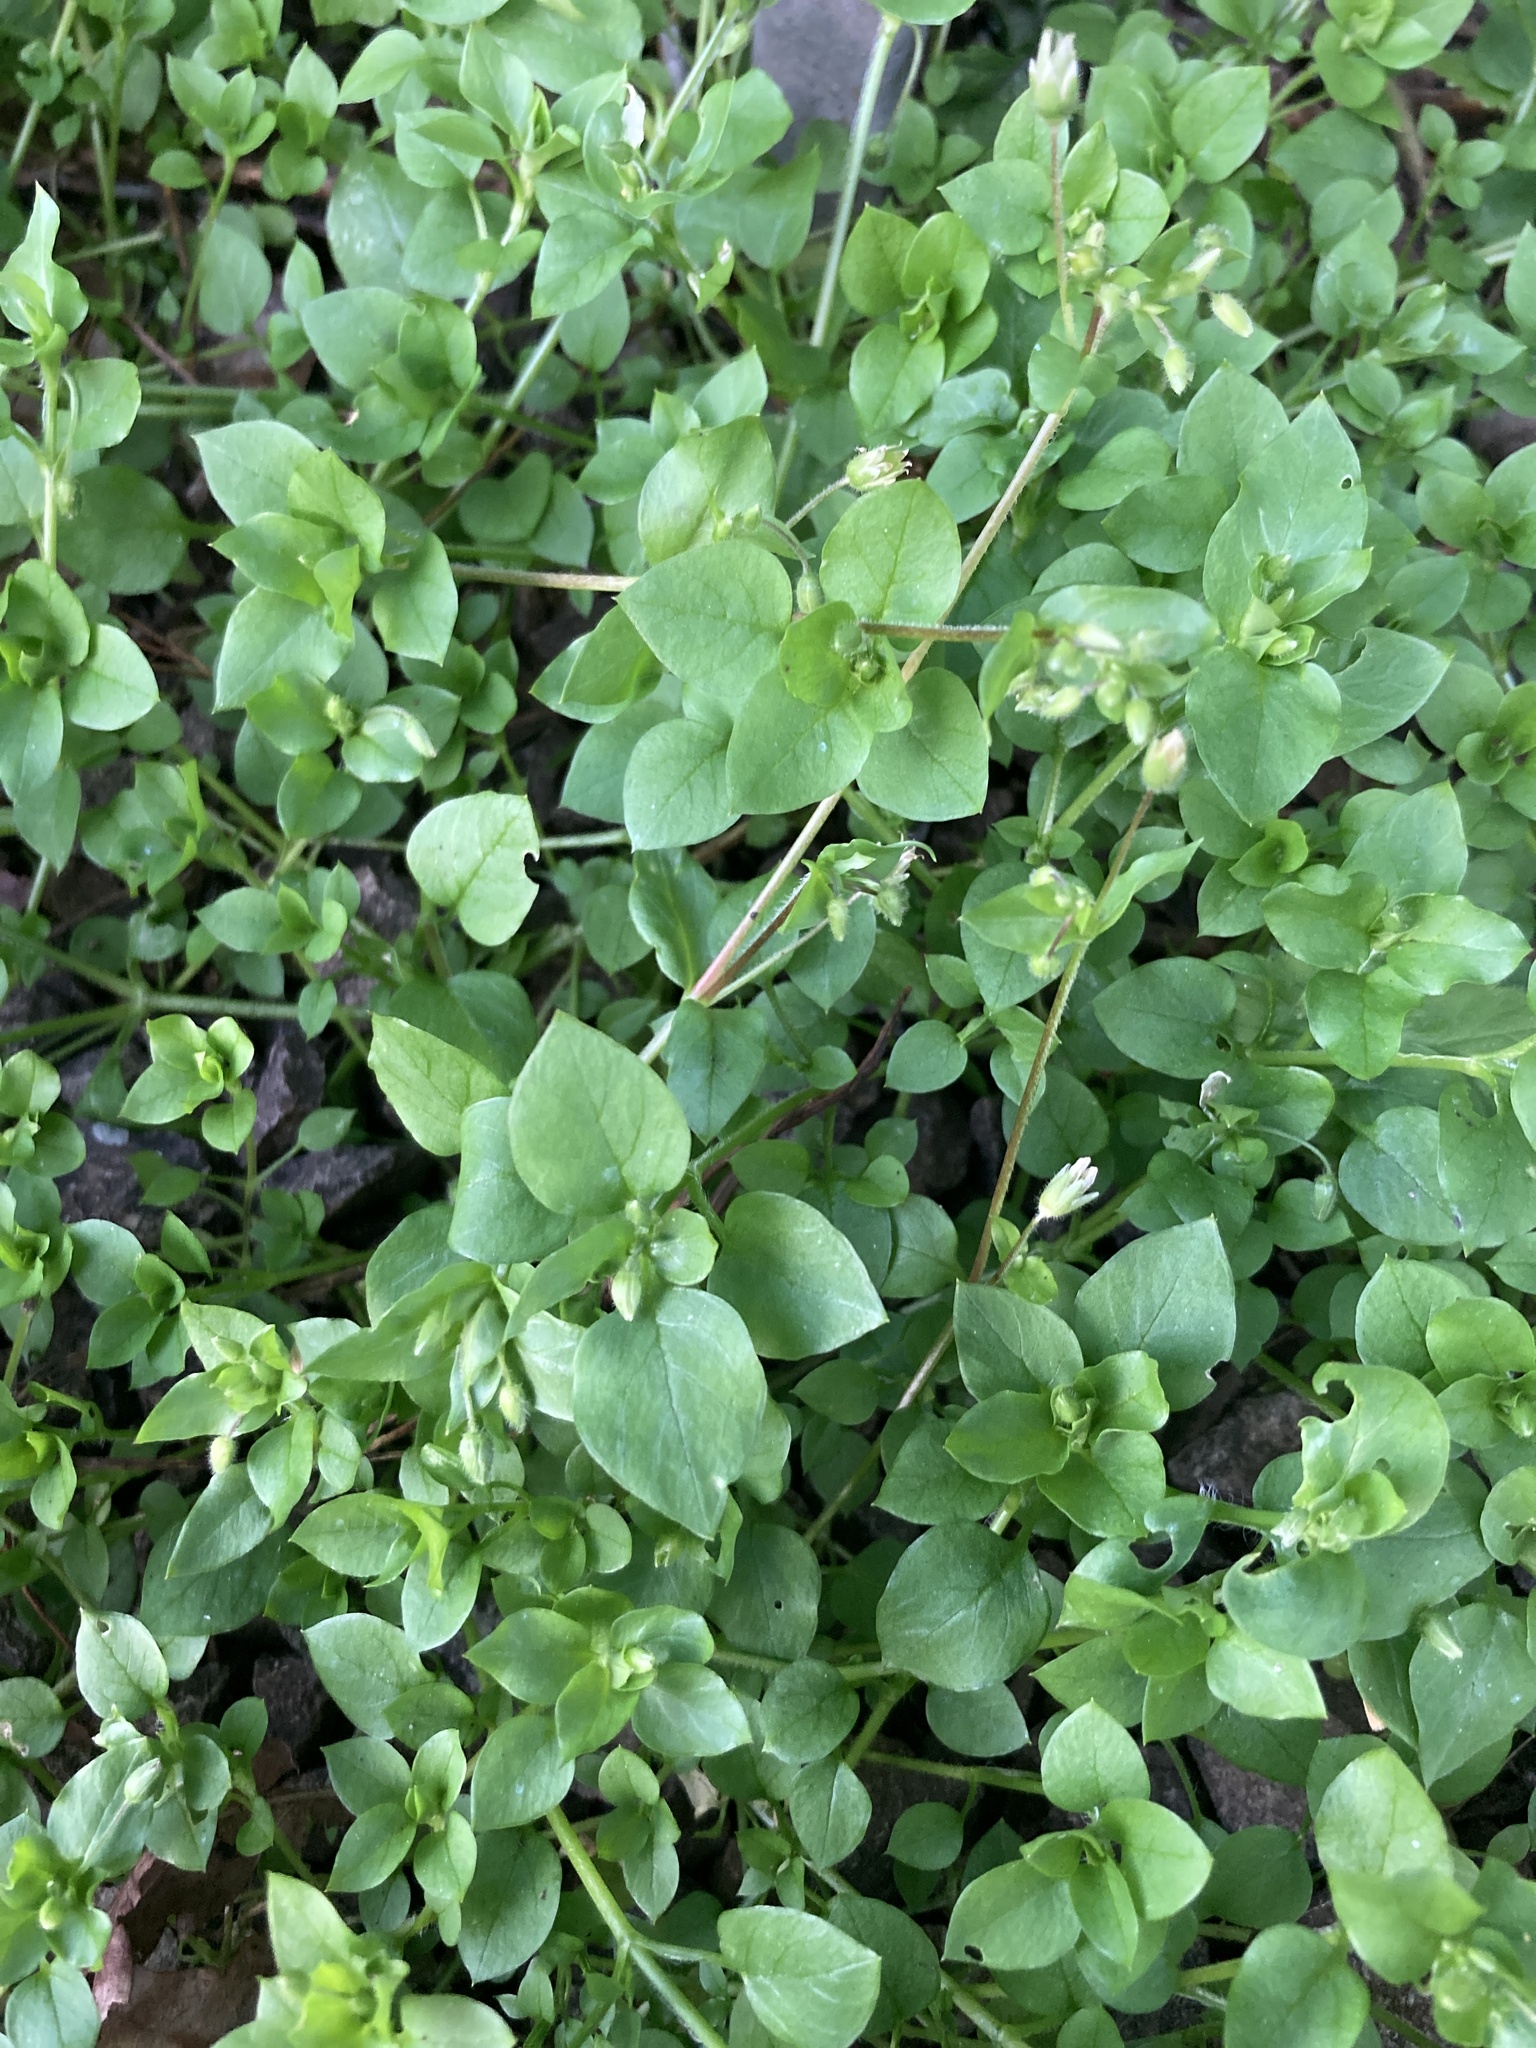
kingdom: Plantae
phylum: Tracheophyta
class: Magnoliopsida
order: Caryophyllales
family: Caryophyllaceae
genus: Stellaria
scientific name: Stellaria media
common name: Common chickweed
